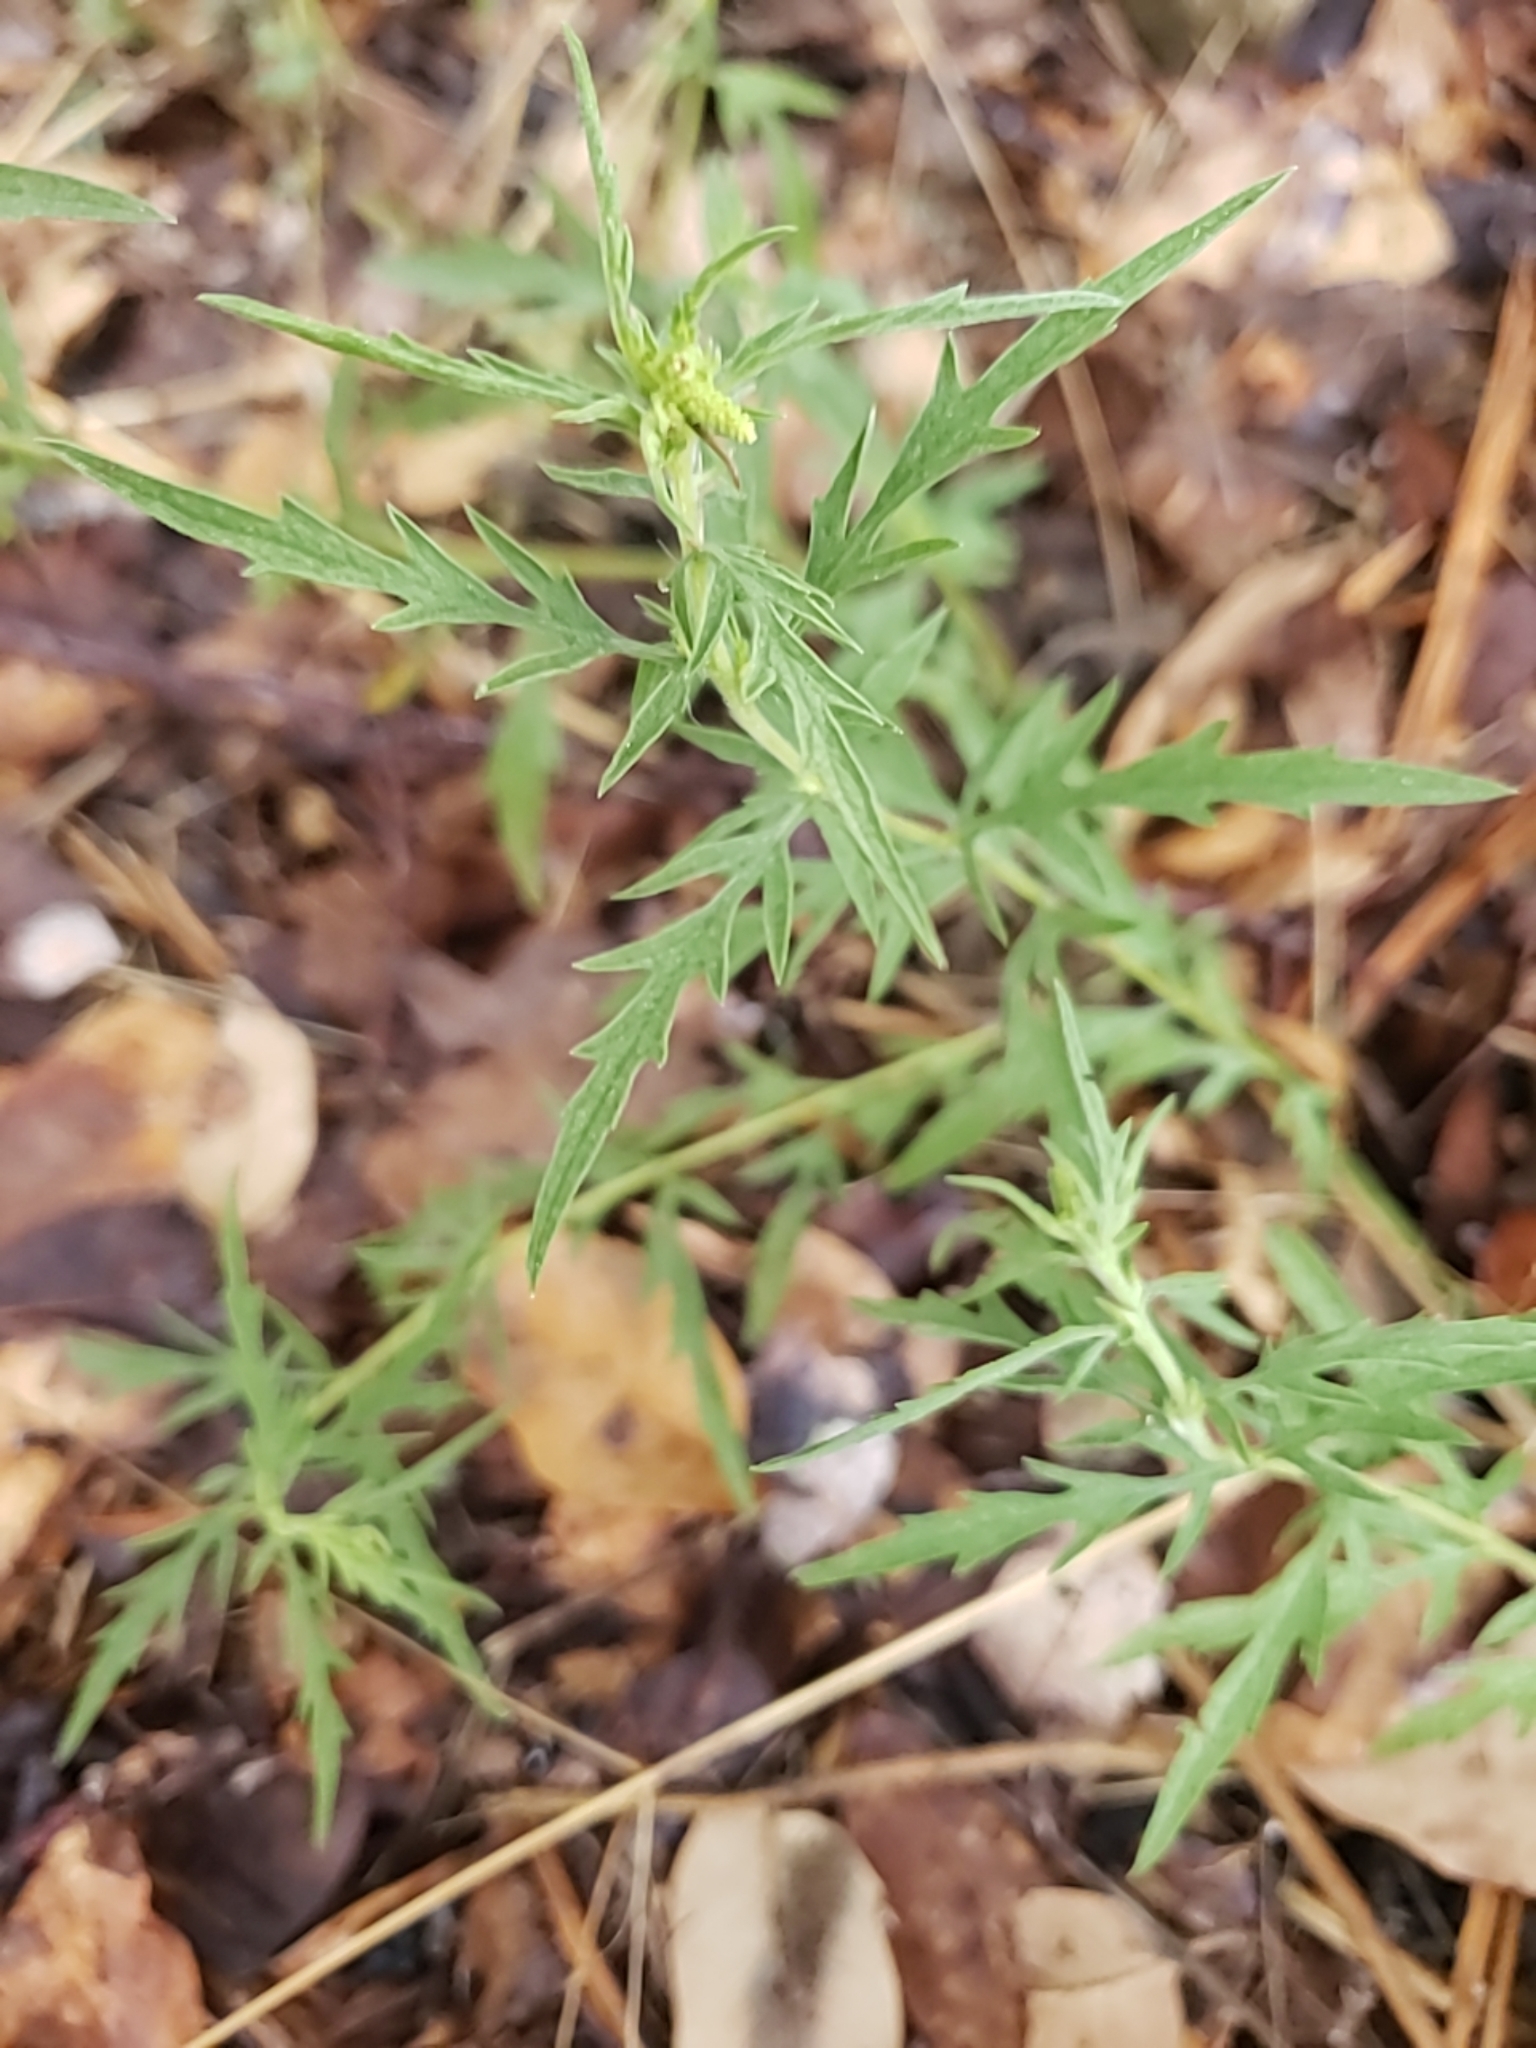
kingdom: Plantae
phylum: Tracheophyta
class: Magnoliopsida
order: Asterales
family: Asteraceae
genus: Ambrosia
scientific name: Ambrosia psilostachya
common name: Perennial ragweed
